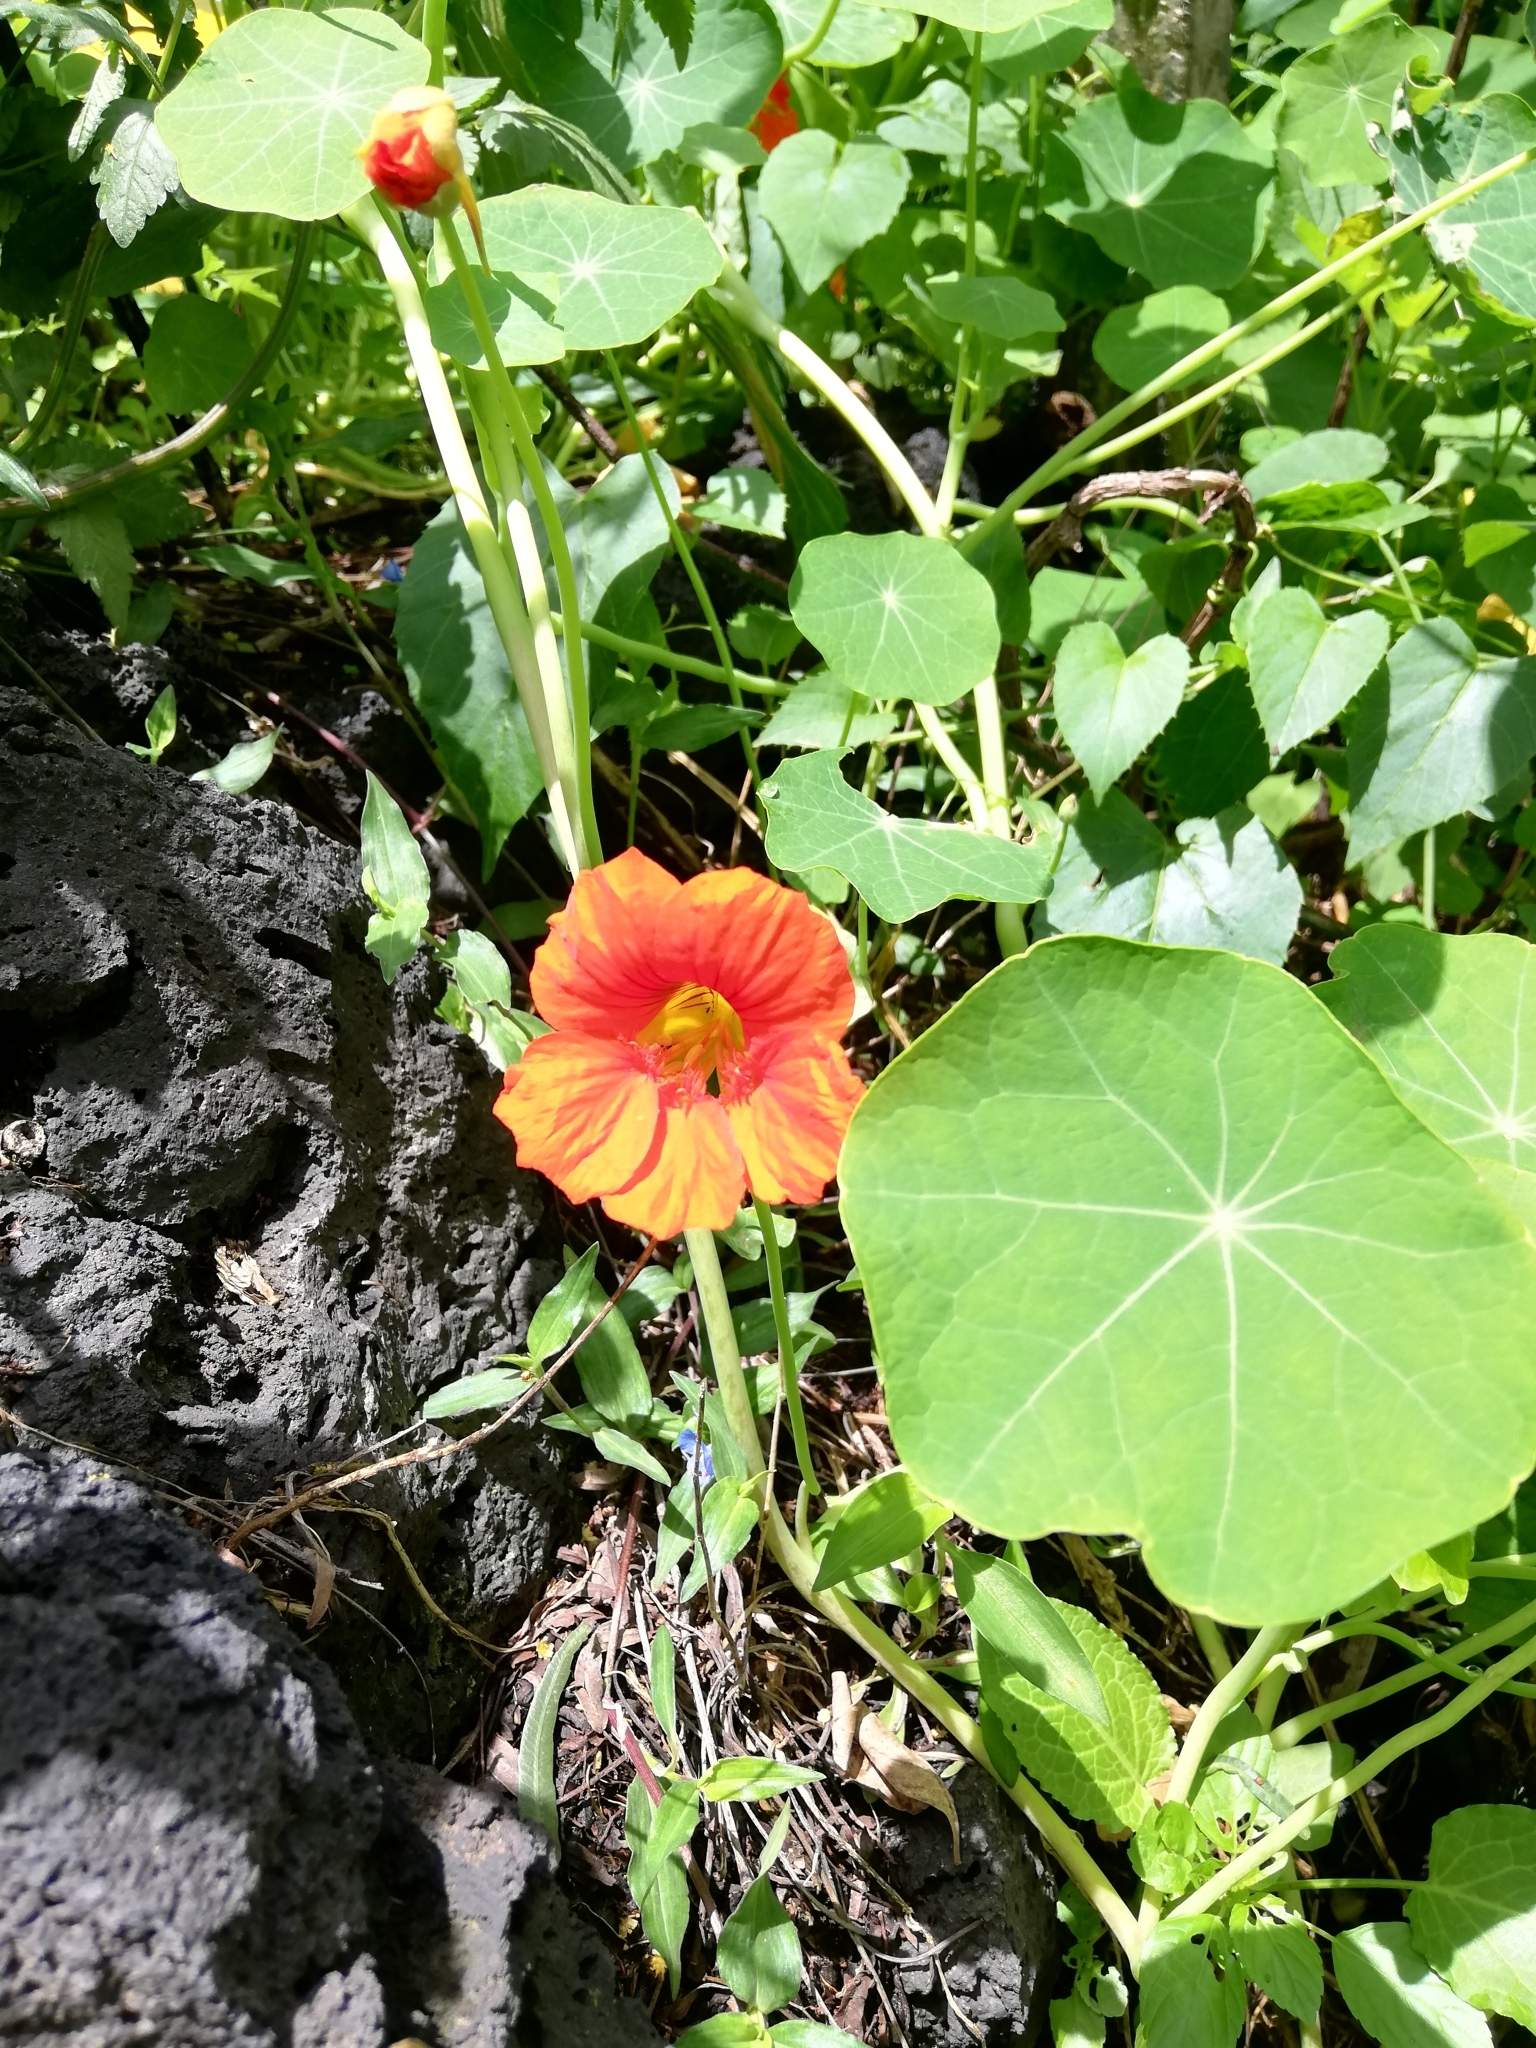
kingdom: Plantae
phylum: Tracheophyta
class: Magnoliopsida
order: Brassicales
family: Tropaeolaceae
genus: Tropaeolum
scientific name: Tropaeolum majus
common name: Nasturtium
